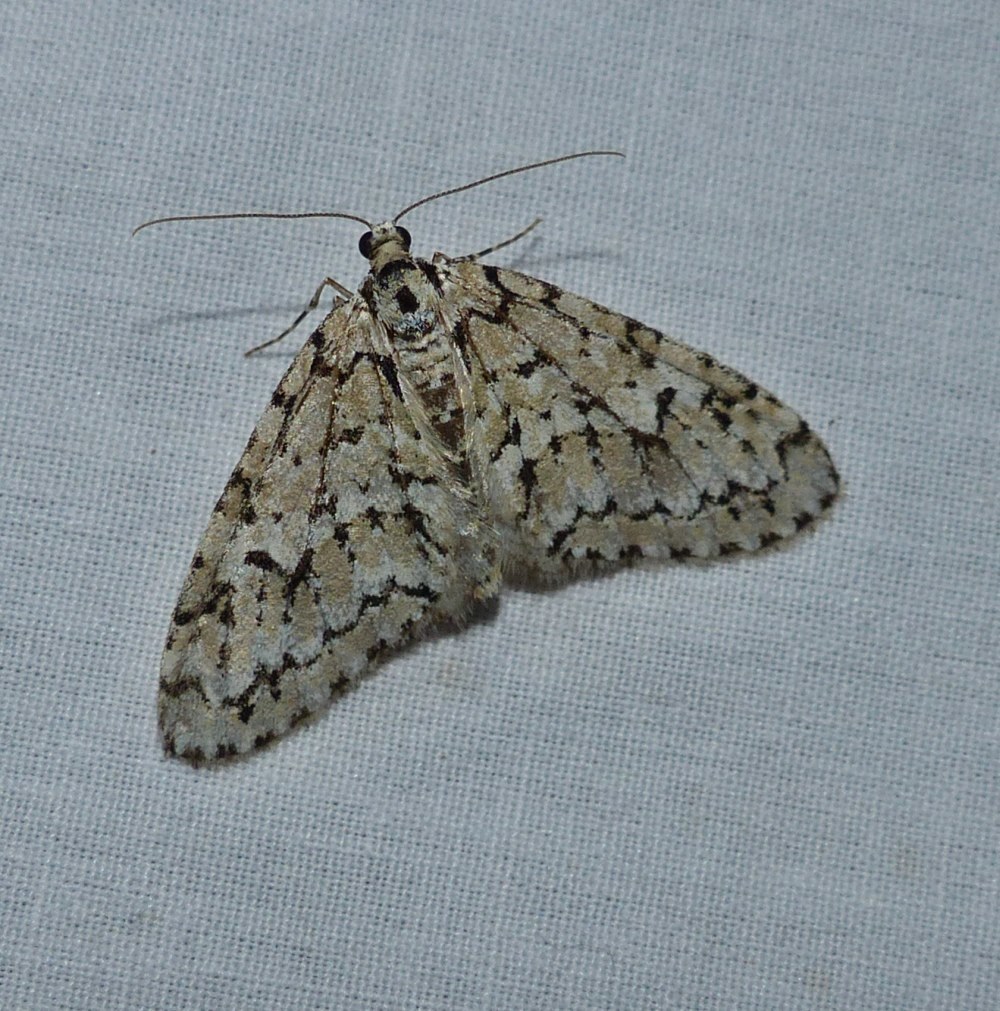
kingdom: Animalia
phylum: Arthropoda
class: Insecta
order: Lepidoptera
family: Geometridae
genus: Cladara
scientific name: Cladara atroliturata
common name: Scribbler
